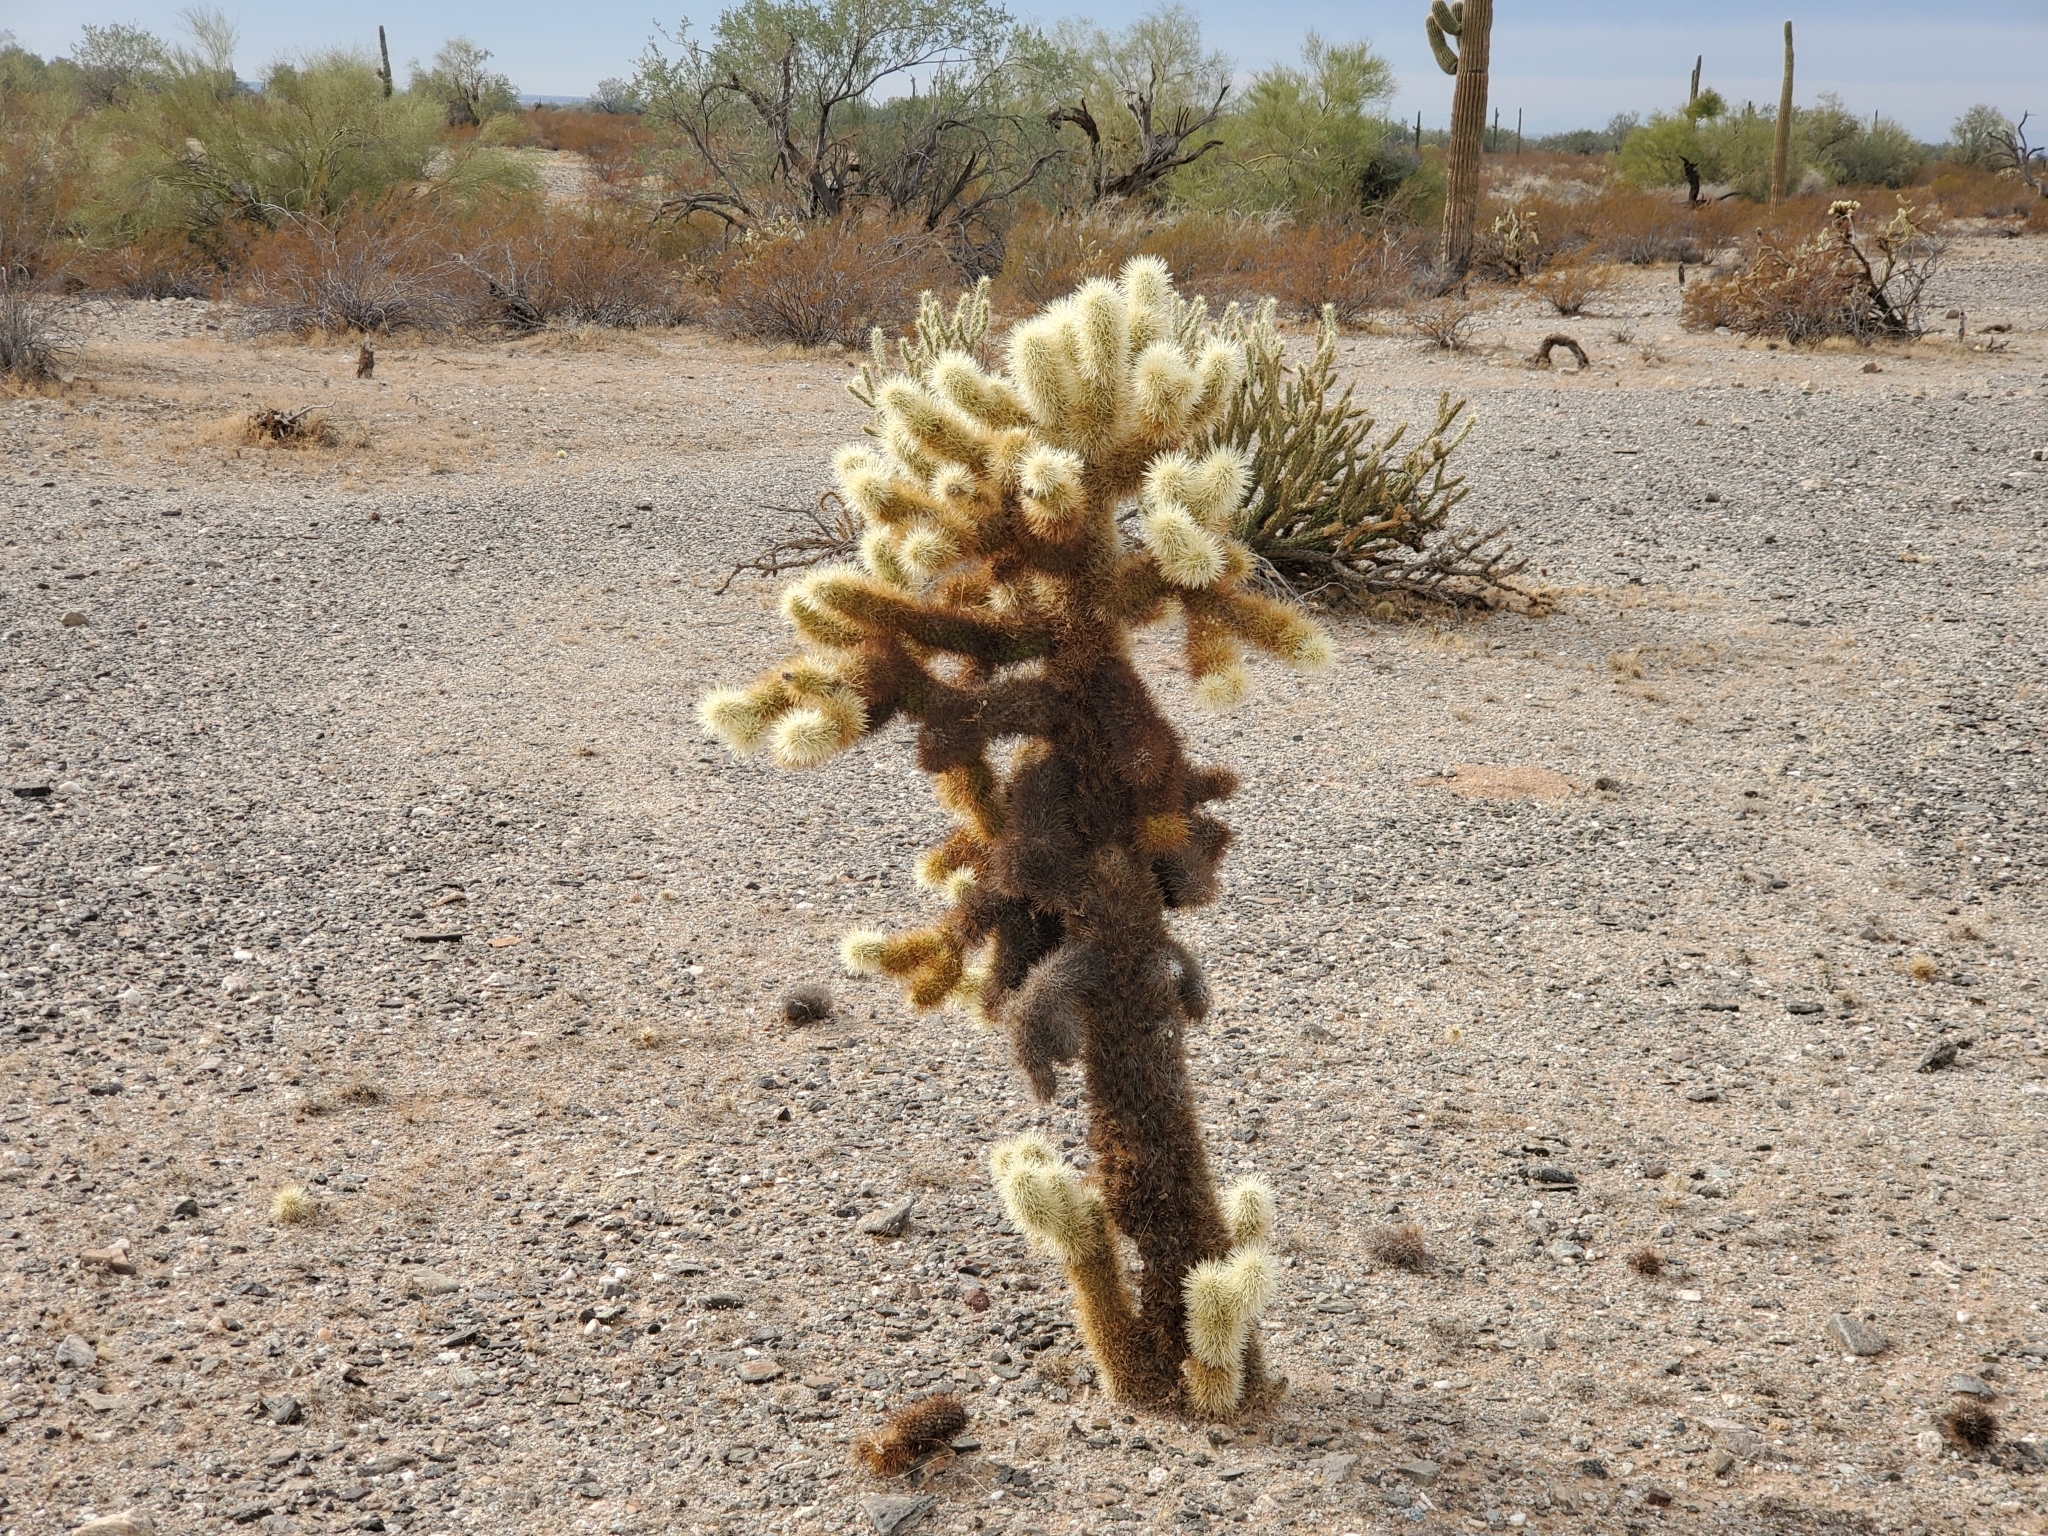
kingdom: Plantae
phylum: Tracheophyta
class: Magnoliopsida
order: Caryophyllales
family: Cactaceae
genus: Cylindropuntia
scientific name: Cylindropuntia fosbergii
